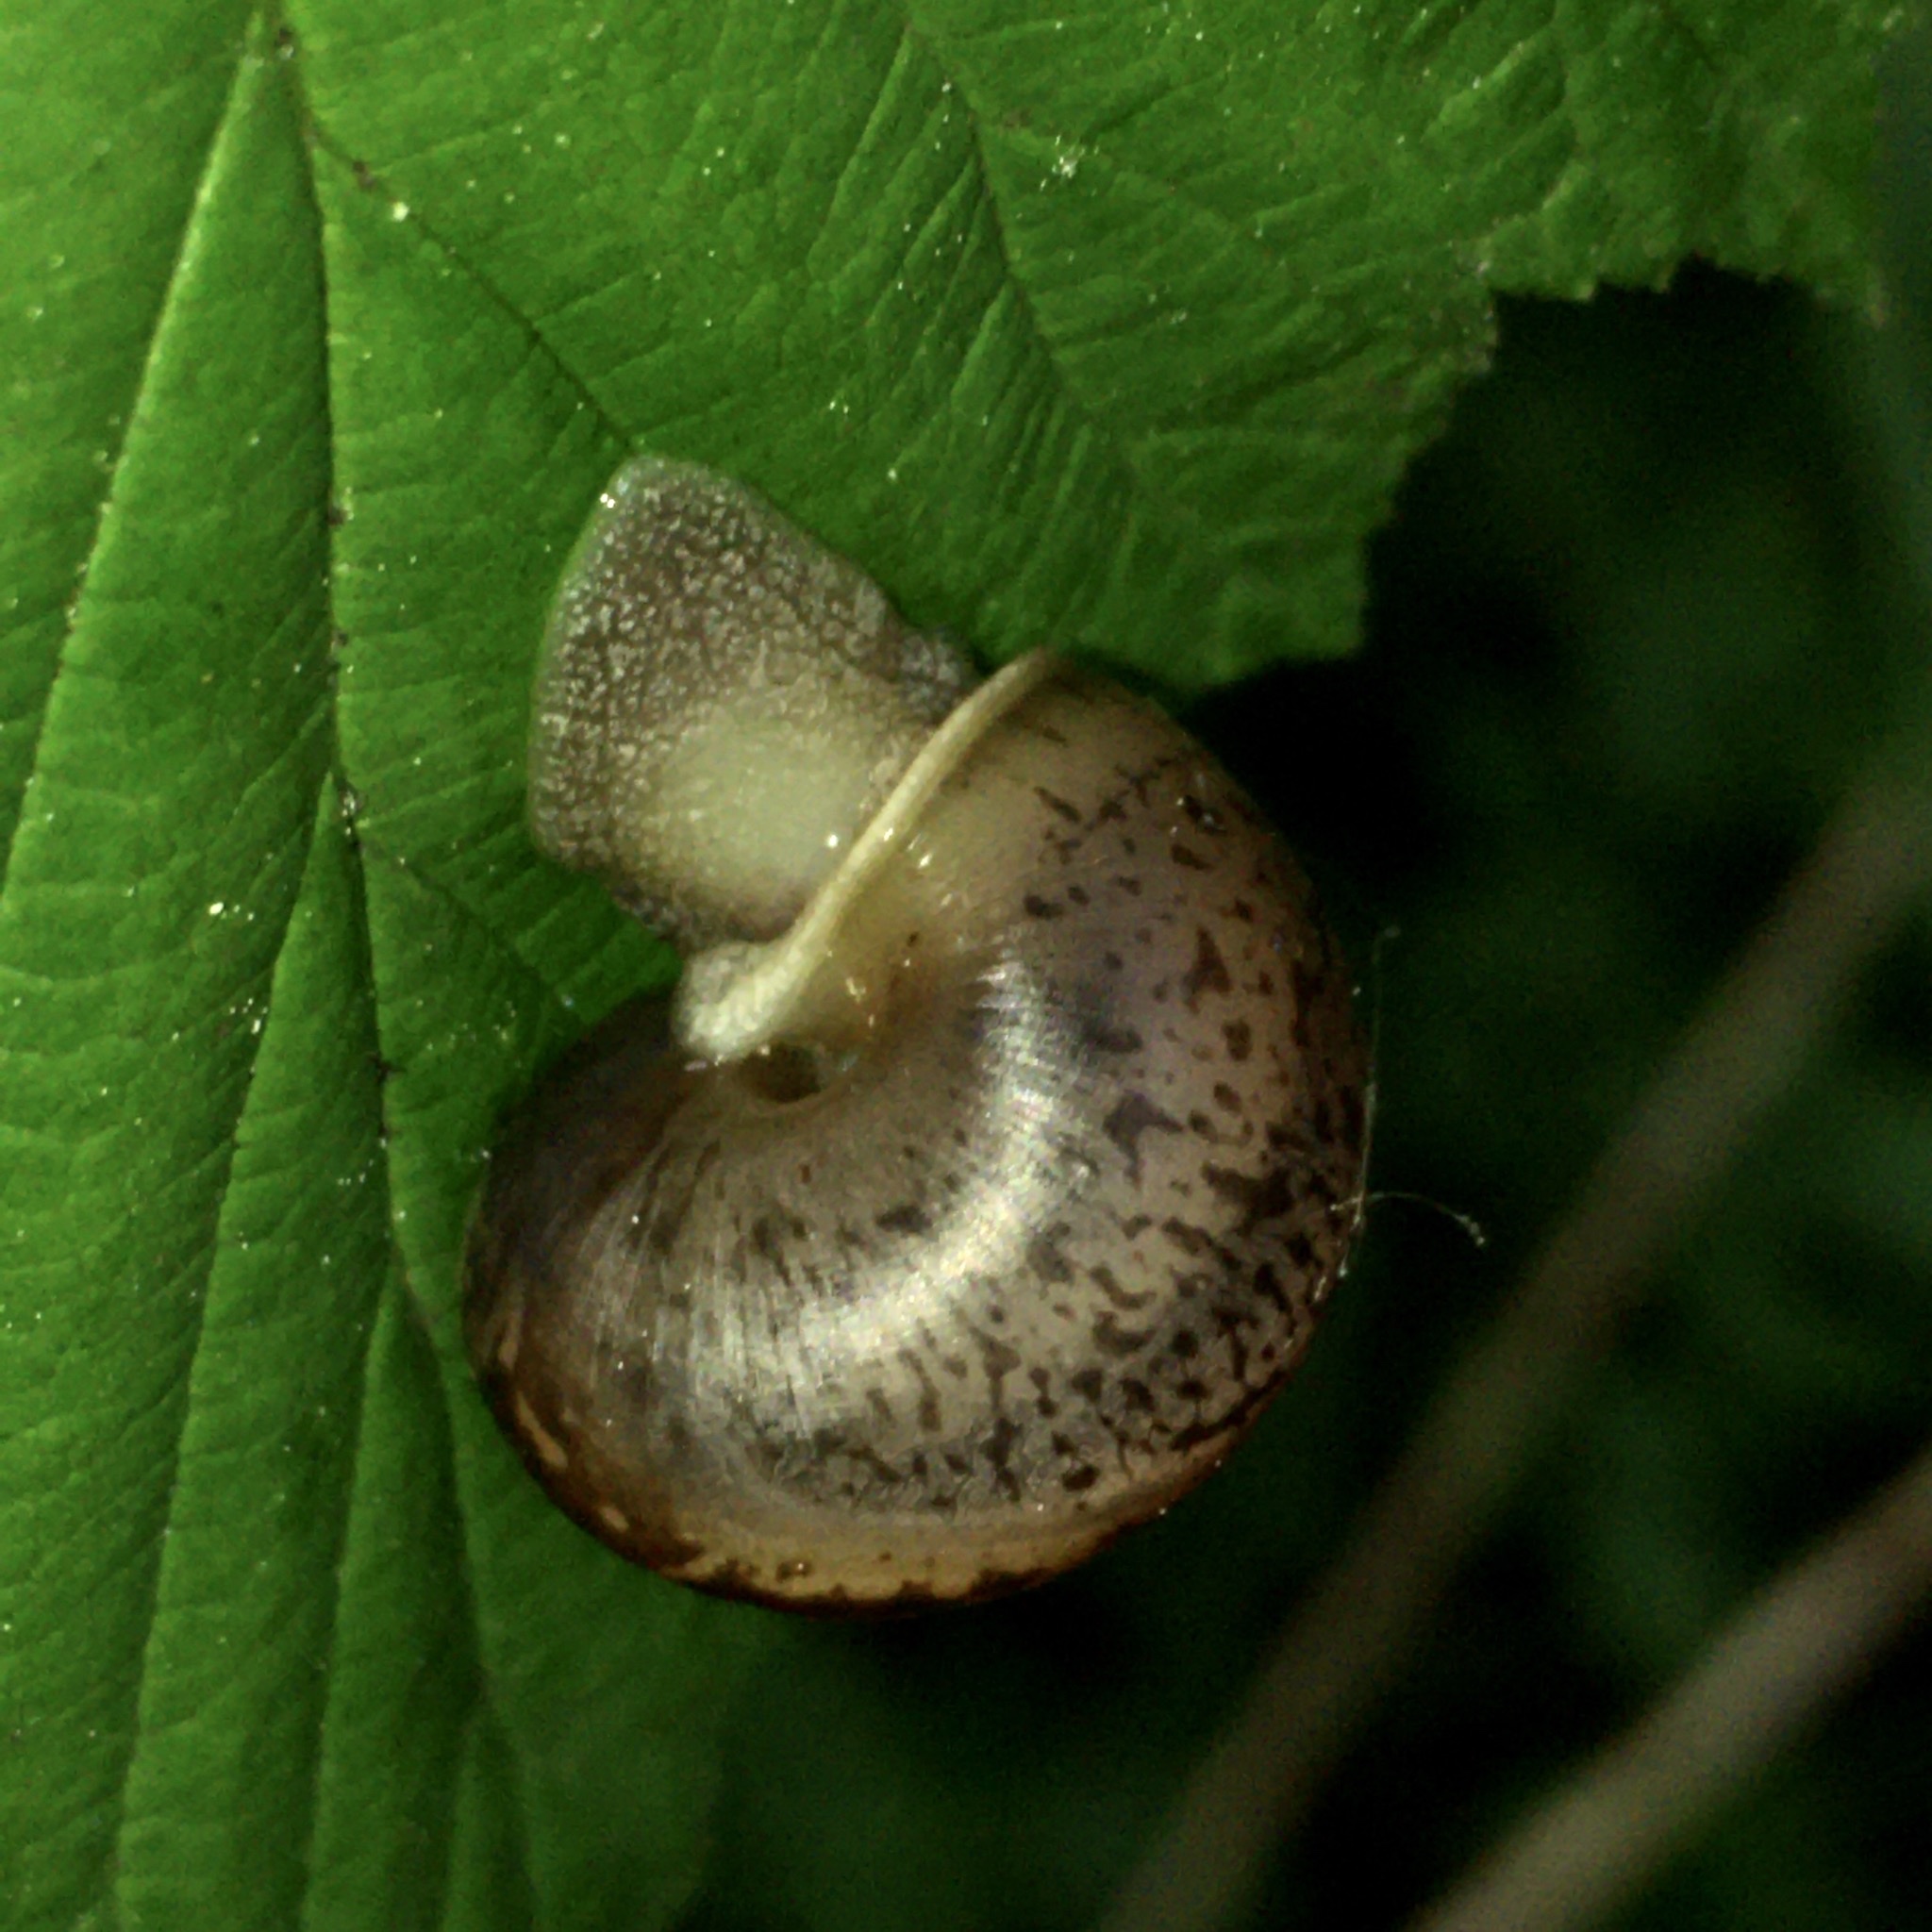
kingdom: Animalia
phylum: Mollusca
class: Gastropoda
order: Stylommatophora
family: Camaenidae
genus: Fruticicola
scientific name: Fruticicola fruticum
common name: Bush snail
